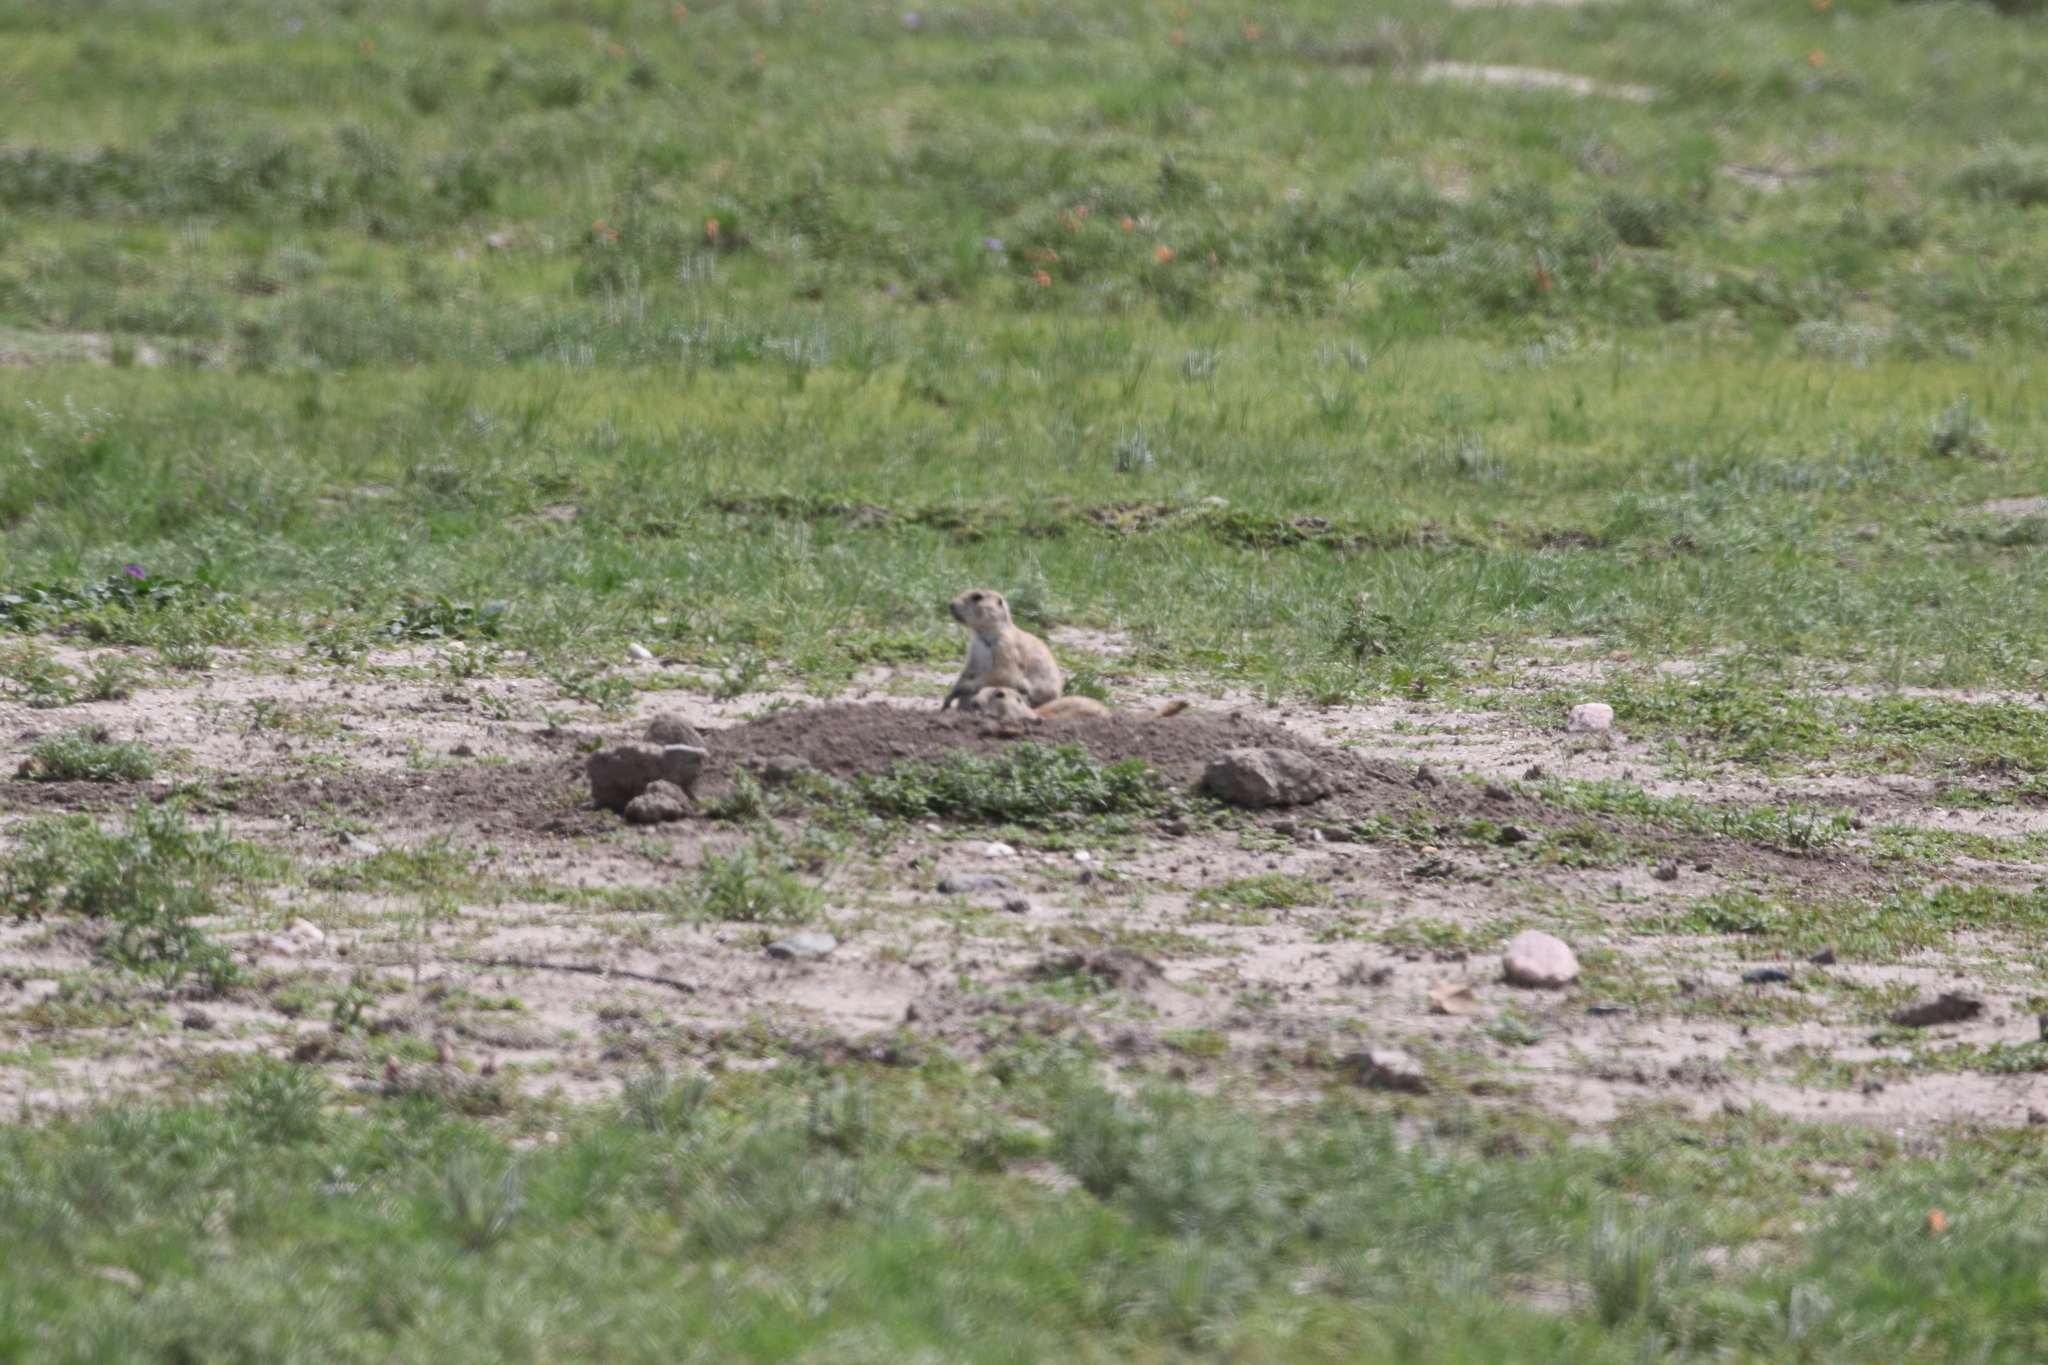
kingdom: Animalia
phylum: Chordata
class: Mammalia
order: Rodentia
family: Sciuridae
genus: Cynomys
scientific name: Cynomys ludovicianus
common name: Black-tailed prairie dog
